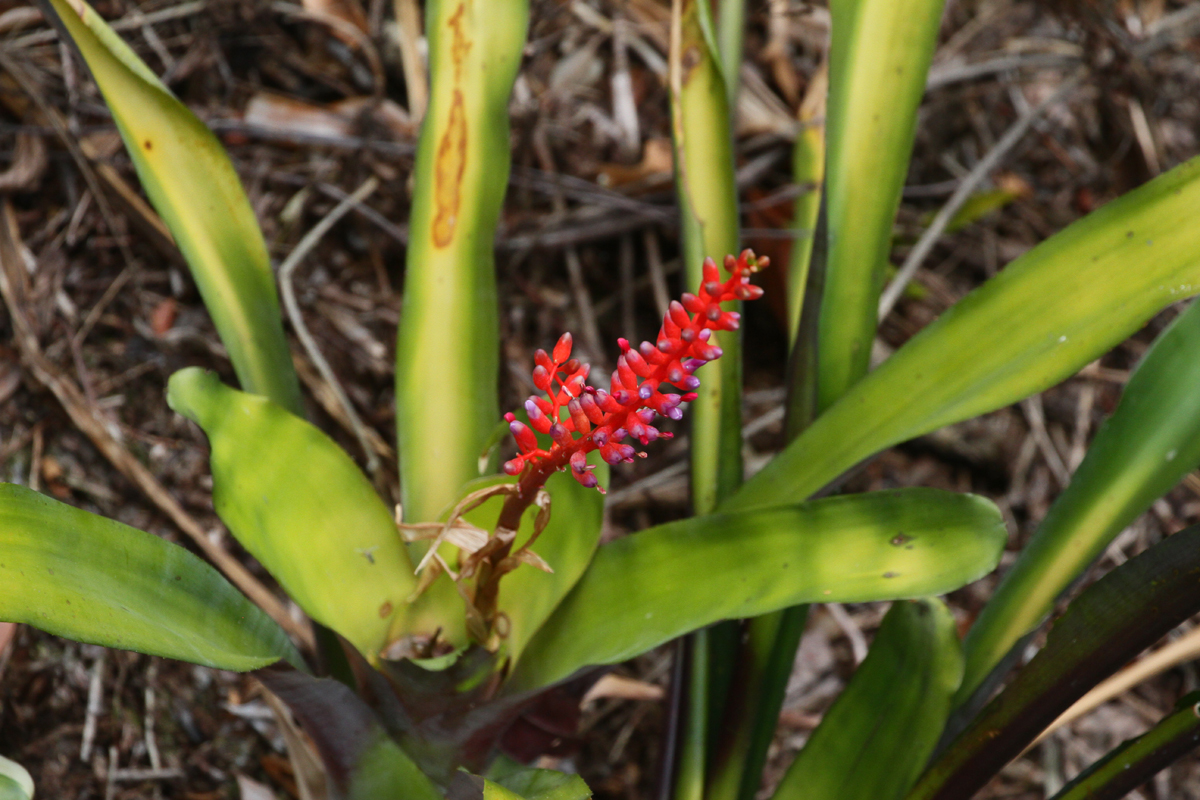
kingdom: Plantae
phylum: Tracheophyta
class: Liliopsida
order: Poales
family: Bromeliaceae
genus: Aechmea
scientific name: Aechmea fulgens
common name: Coralberry
